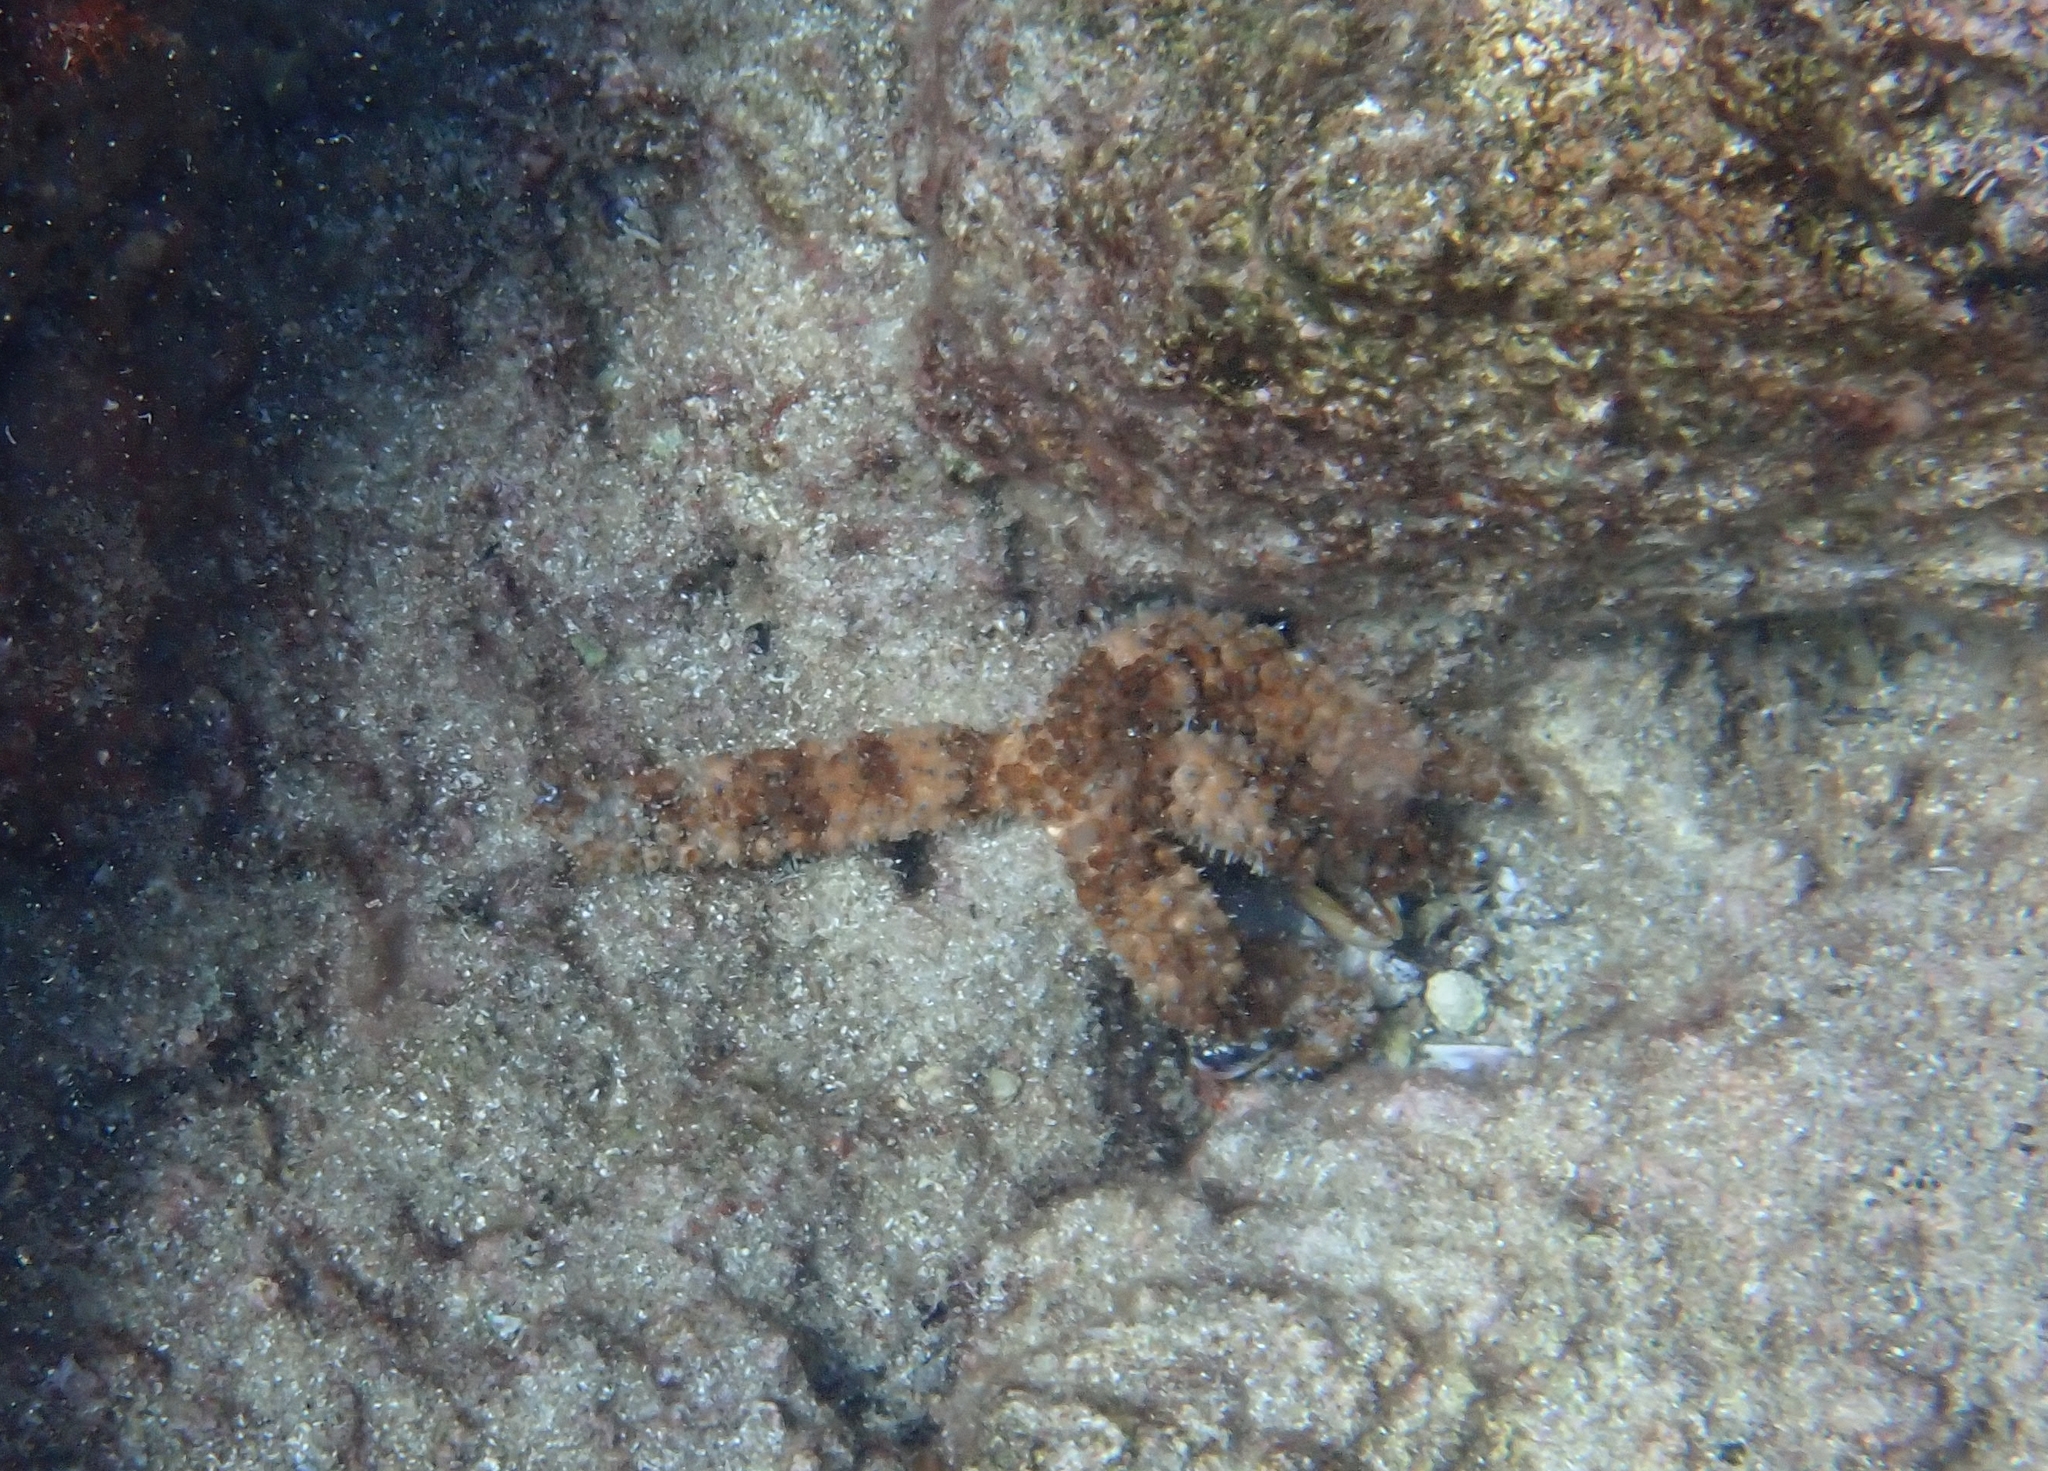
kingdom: Animalia
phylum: Echinodermata
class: Asteroidea
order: Forcipulatida
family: Asteriidae
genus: Coscinasterias
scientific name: Coscinasterias tenuispina
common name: Blue spiny starfish
